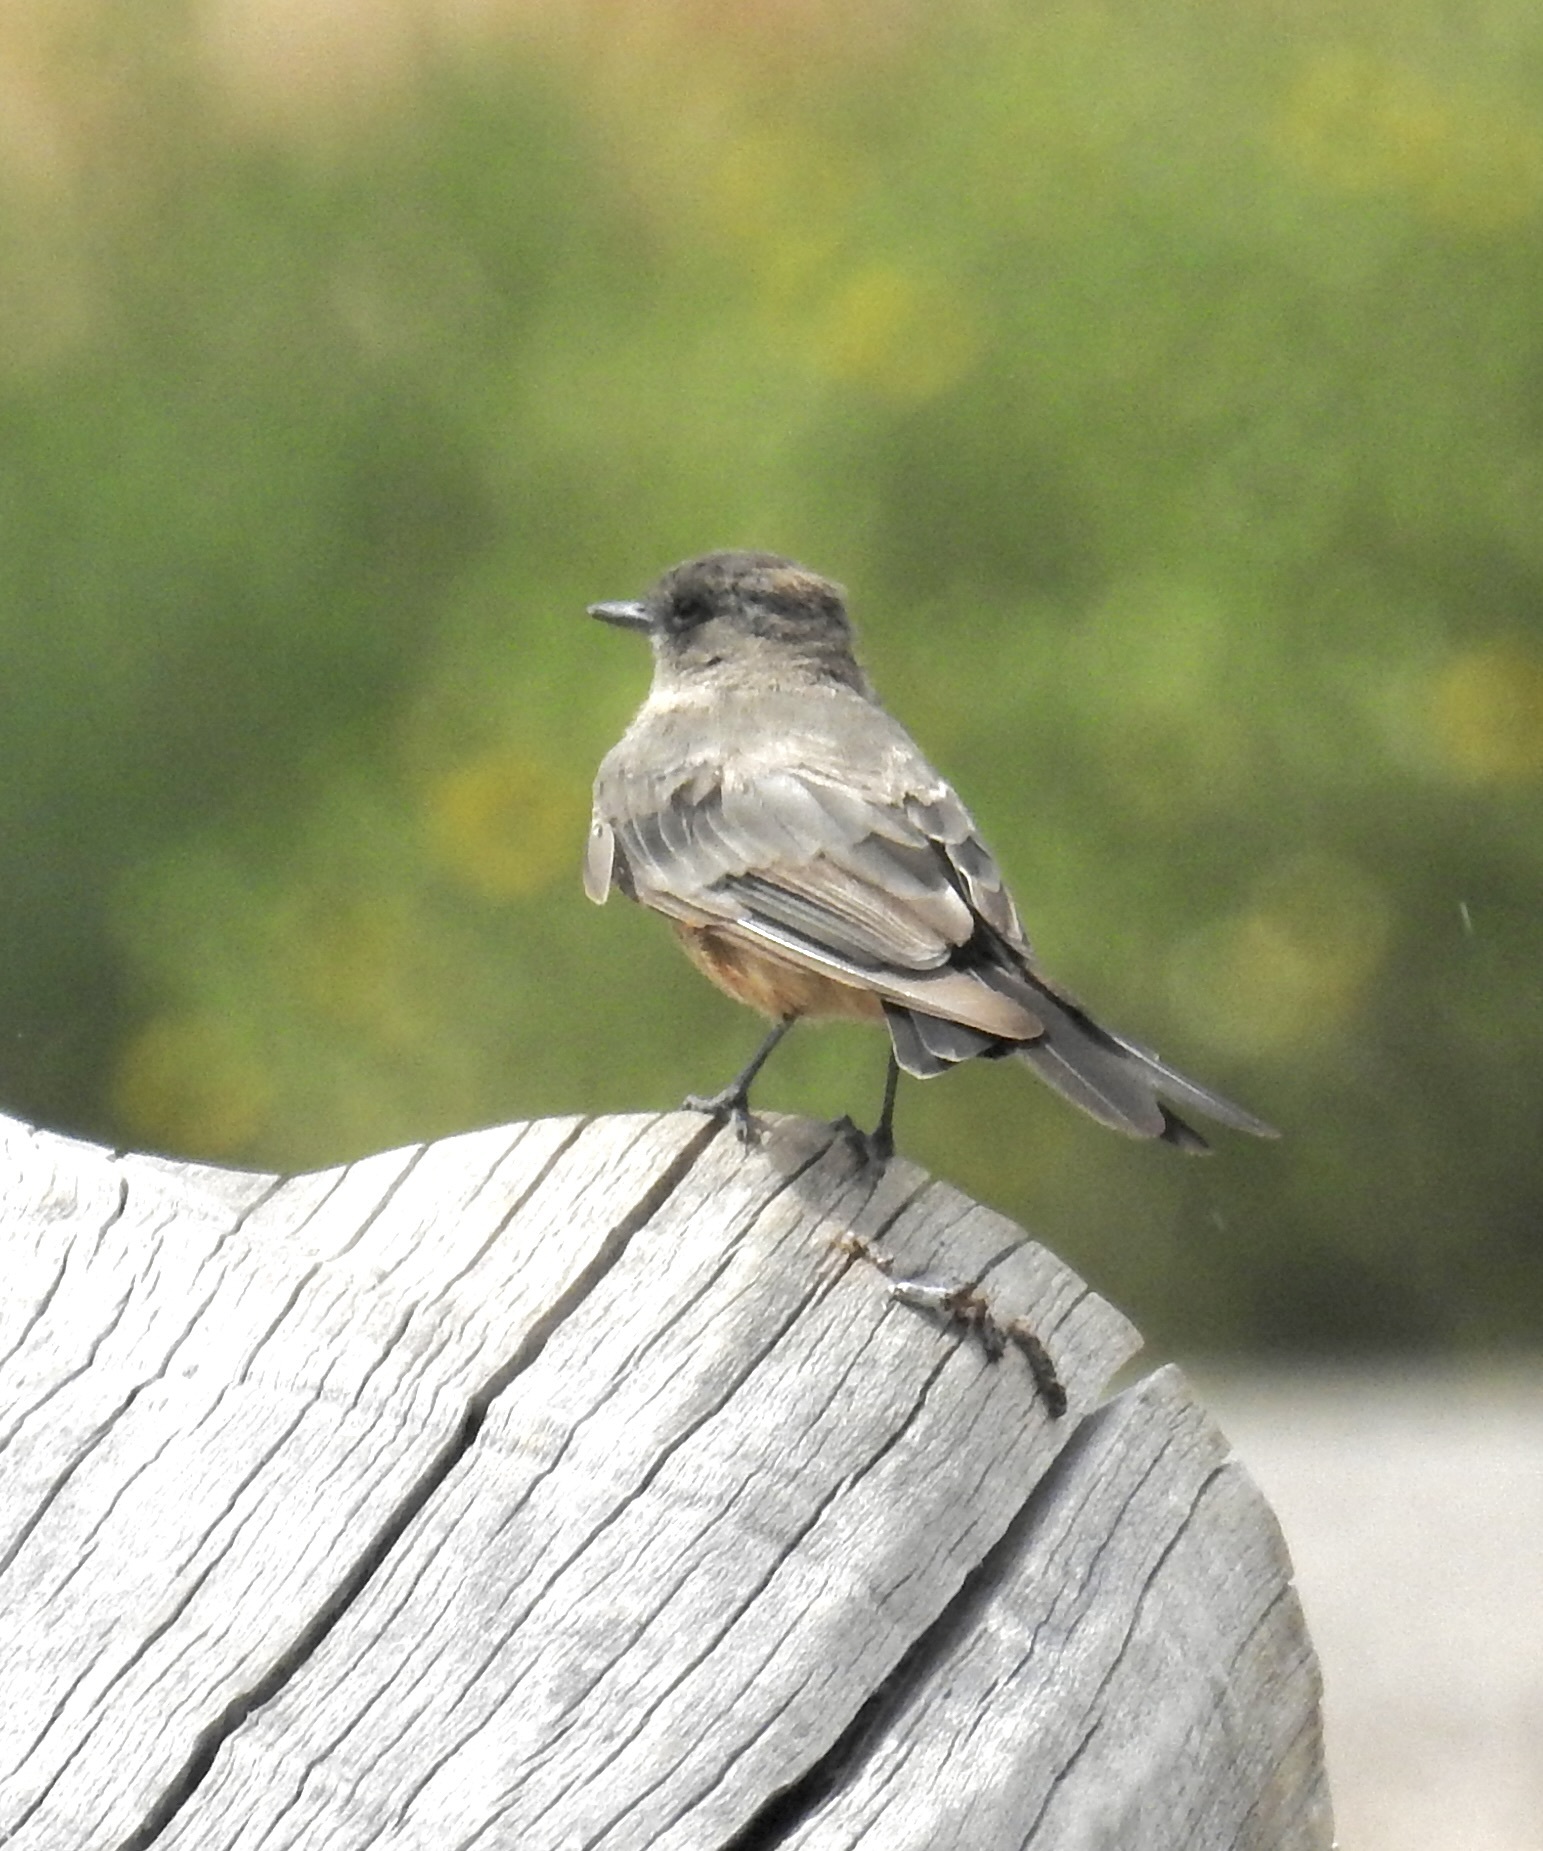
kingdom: Animalia
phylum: Chordata
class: Aves
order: Passeriformes
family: Tyrannidae
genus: Sayornis
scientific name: Sayornis saya
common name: Say's phoebe
